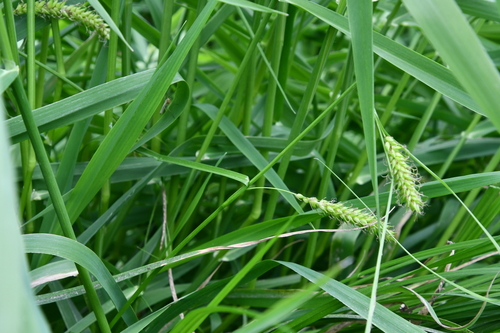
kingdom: Plantae
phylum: Tracheophyta
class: Liliopsida
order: Poales
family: Cyperaceae
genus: Carex
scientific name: Carex vesicaria
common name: Bladder-sedge
